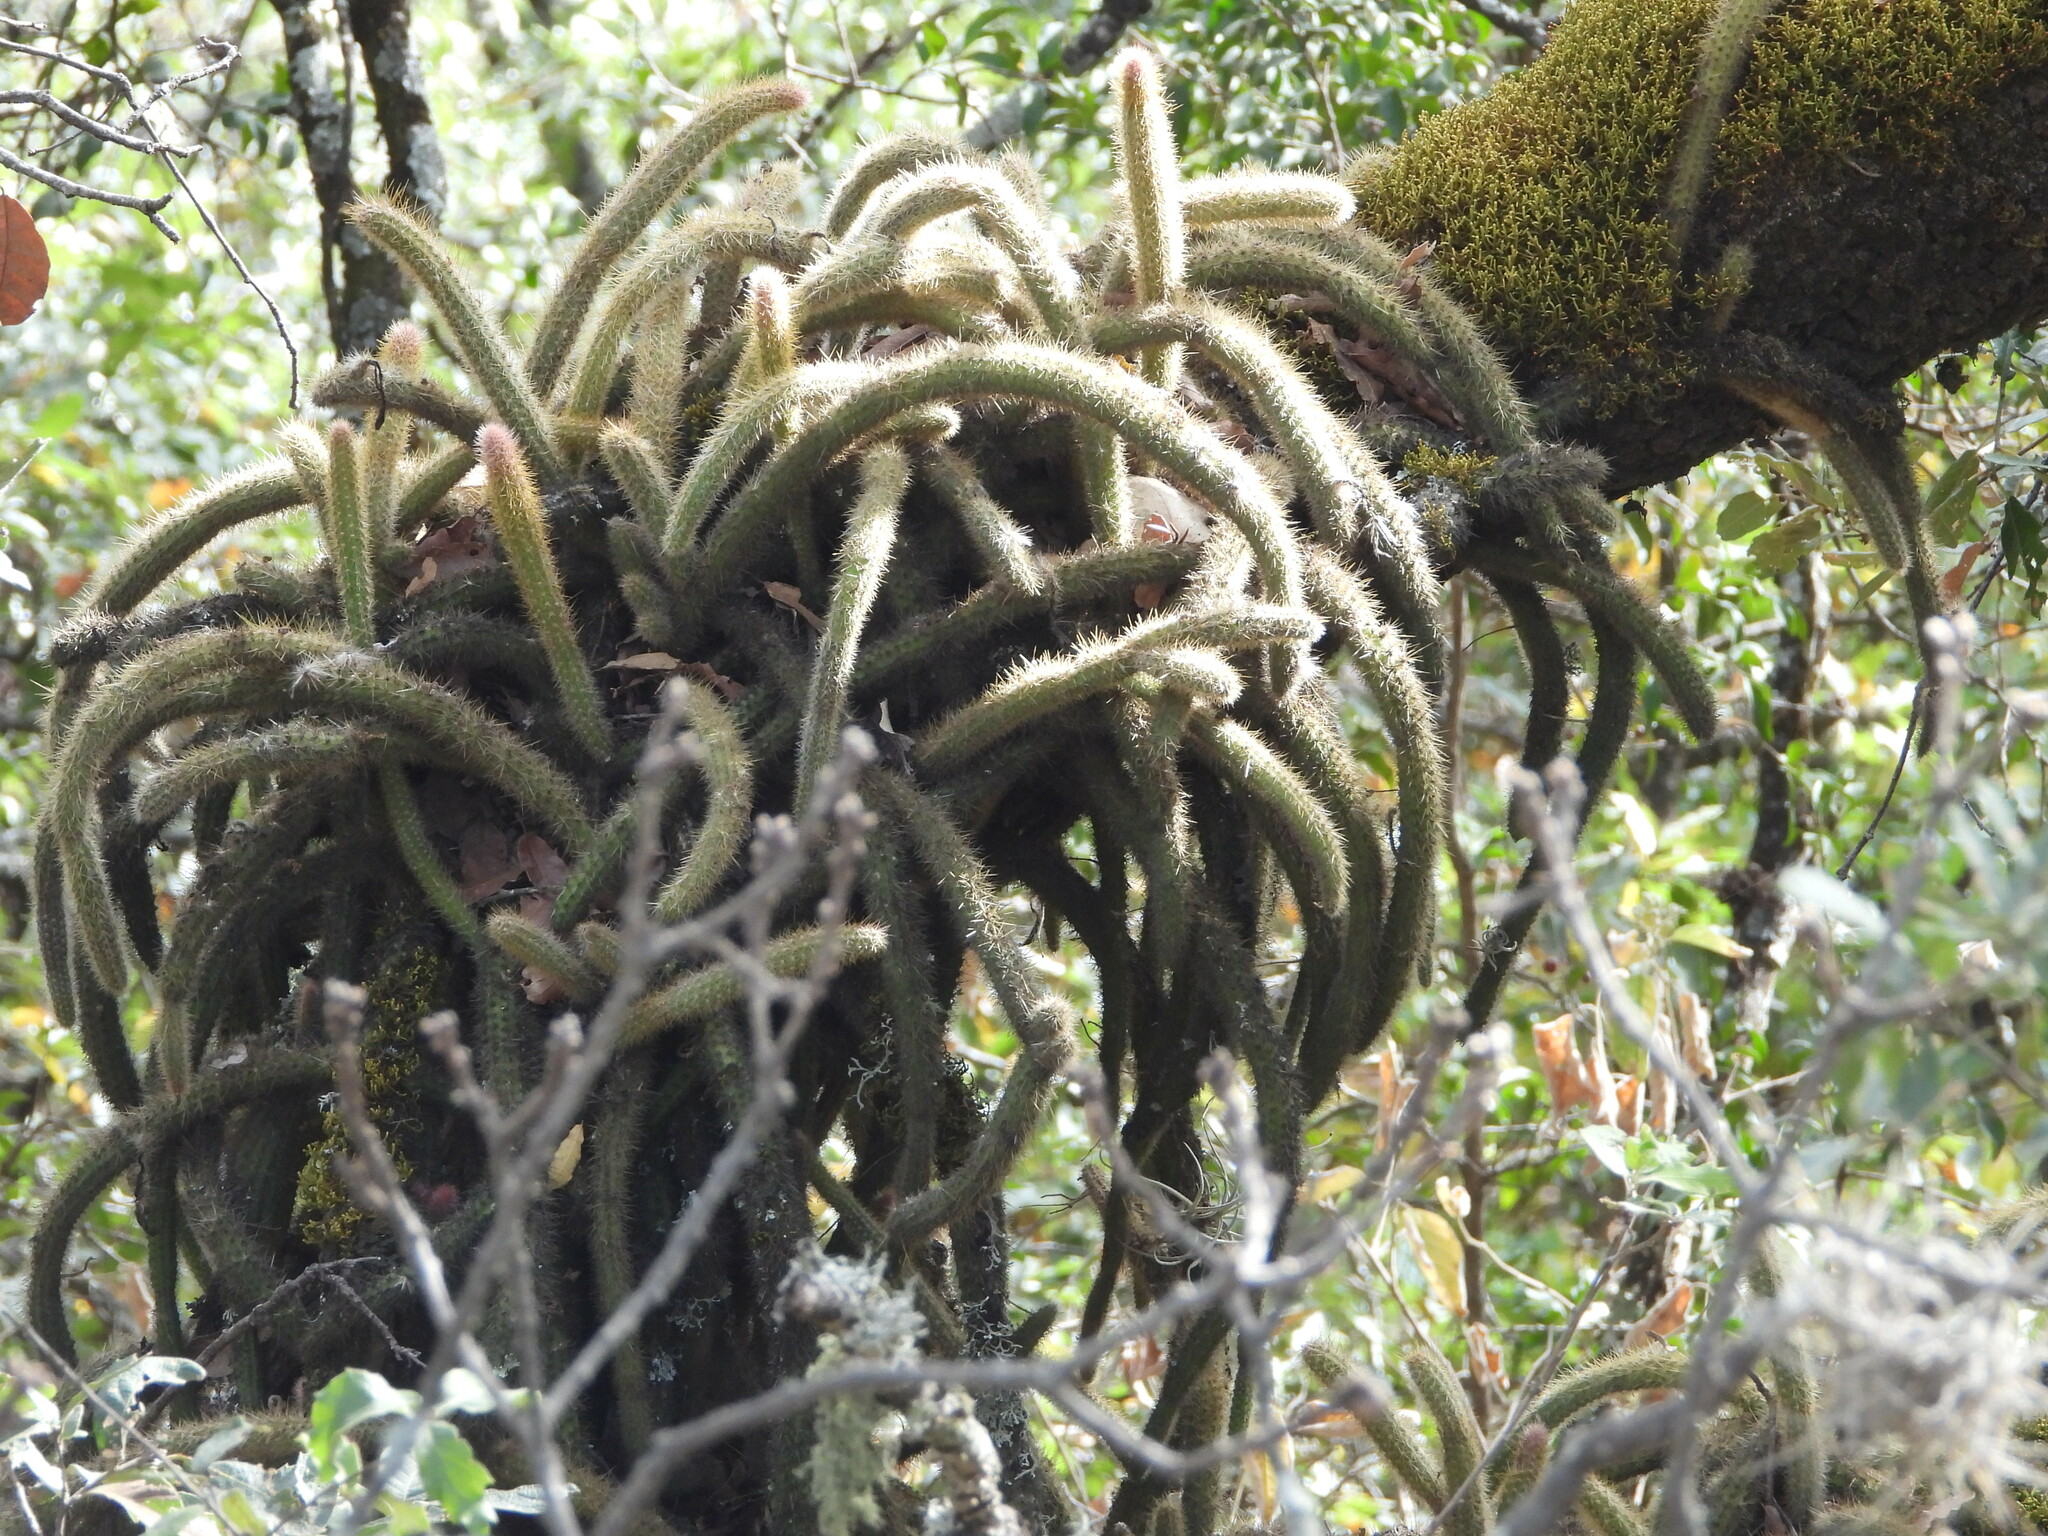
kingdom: Plantae
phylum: Tracheophyta
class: Magnoliopsida
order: Caryophyllales
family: Cactaceae
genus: Disocactus
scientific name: Disocactus speciosus
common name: Sun cereus
